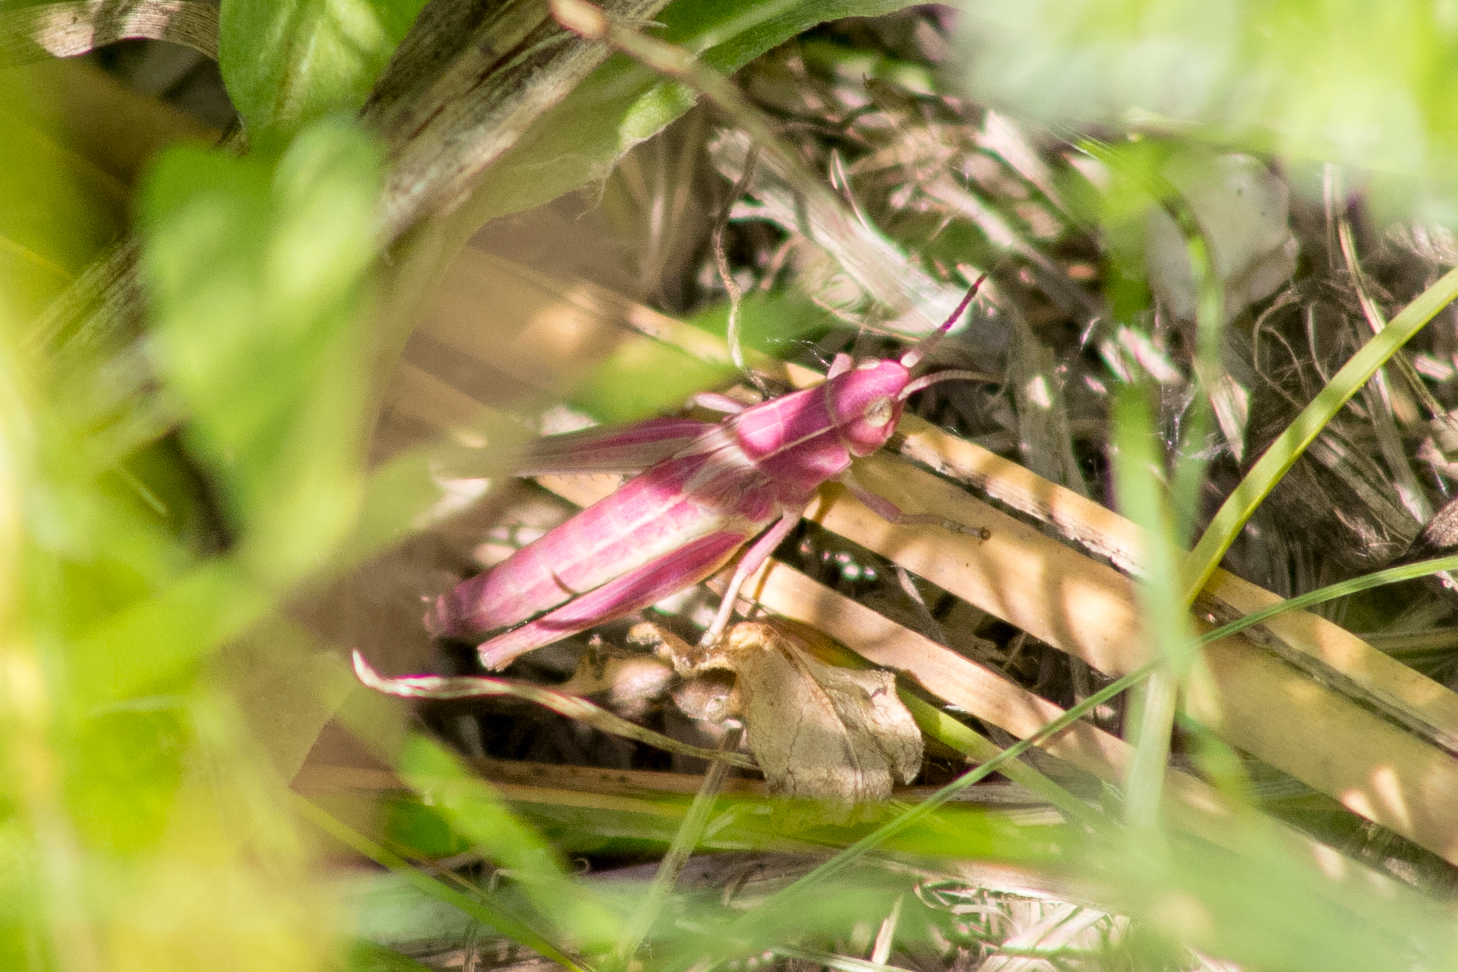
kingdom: Animalia
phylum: Arthropoda
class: Insecta
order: Orthoptera
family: Acrididae
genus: Chrysochraon
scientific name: Chrysochraon dispar
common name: Large gold grasshopper
